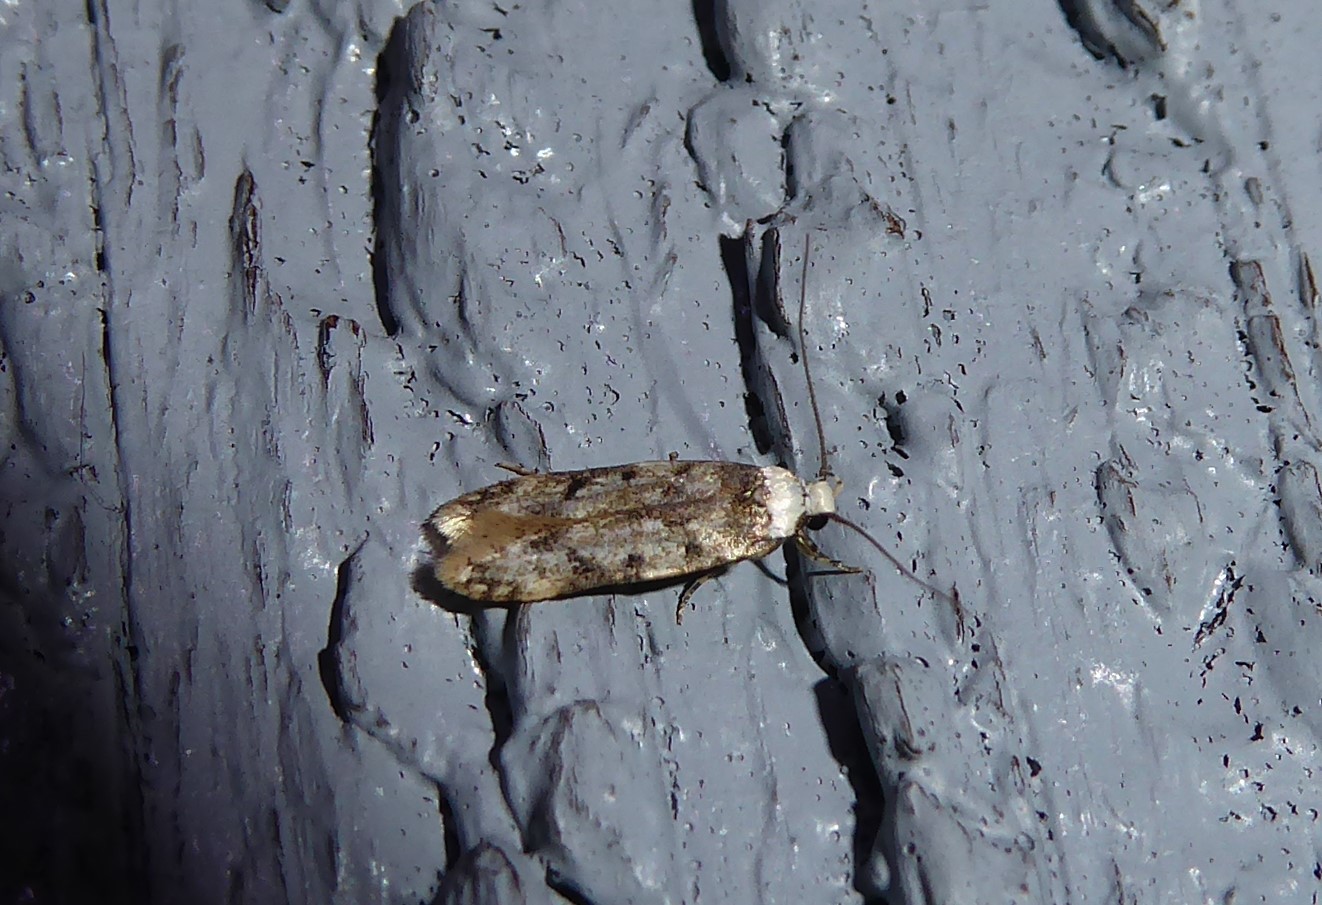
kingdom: Animalia
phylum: Arthropoda
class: Insecta
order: Lepidoptera
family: Oecophoridae
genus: Endrosis
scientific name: Endrosis sarcitrella
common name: White-shouldered house moth
